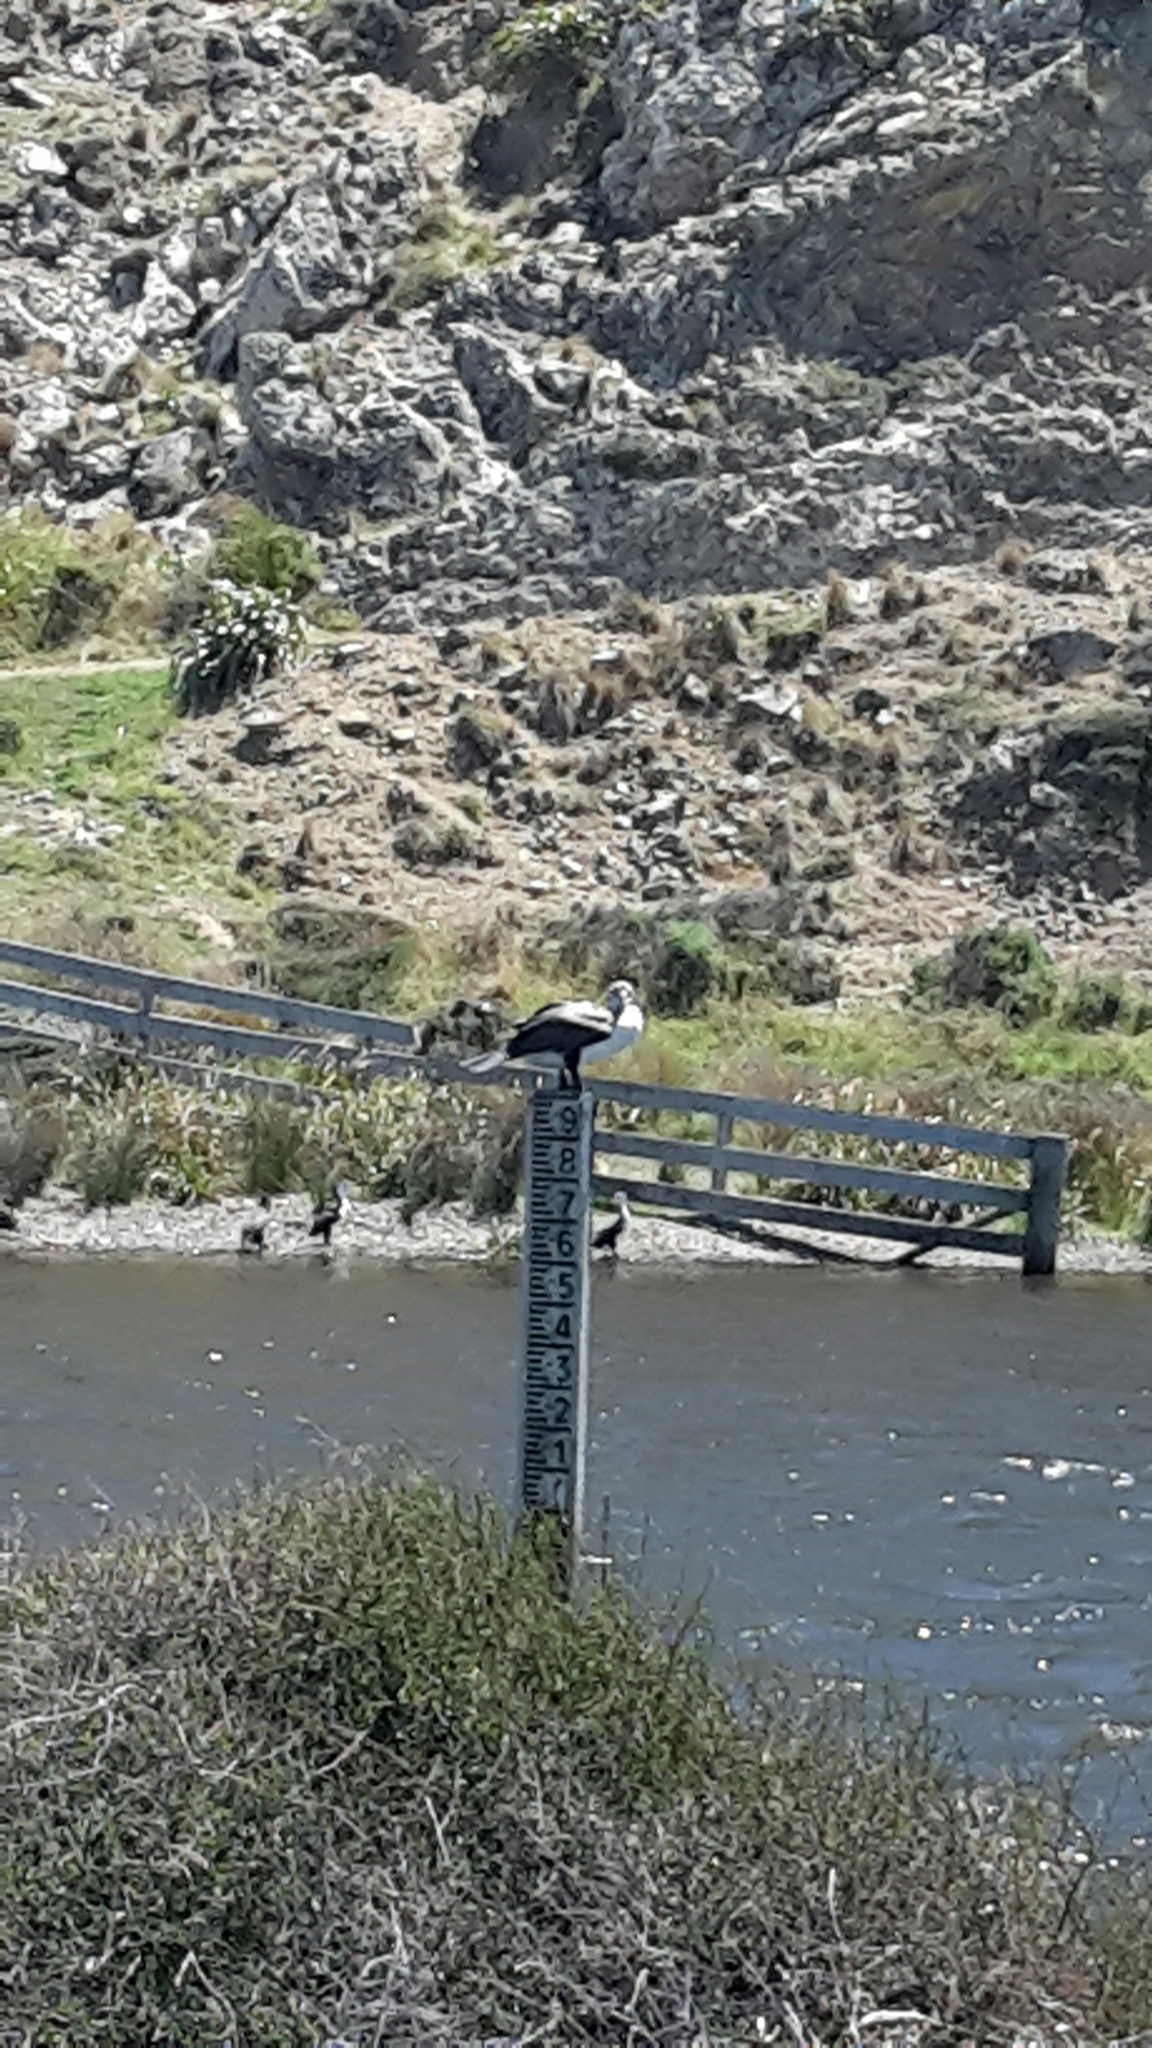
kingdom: Animalia
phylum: Chordata
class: Aves
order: Suliformes
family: Phalacrocoracidae
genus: Phalacrocorax
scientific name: Phalacrocorax varius
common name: Pied cormorant
